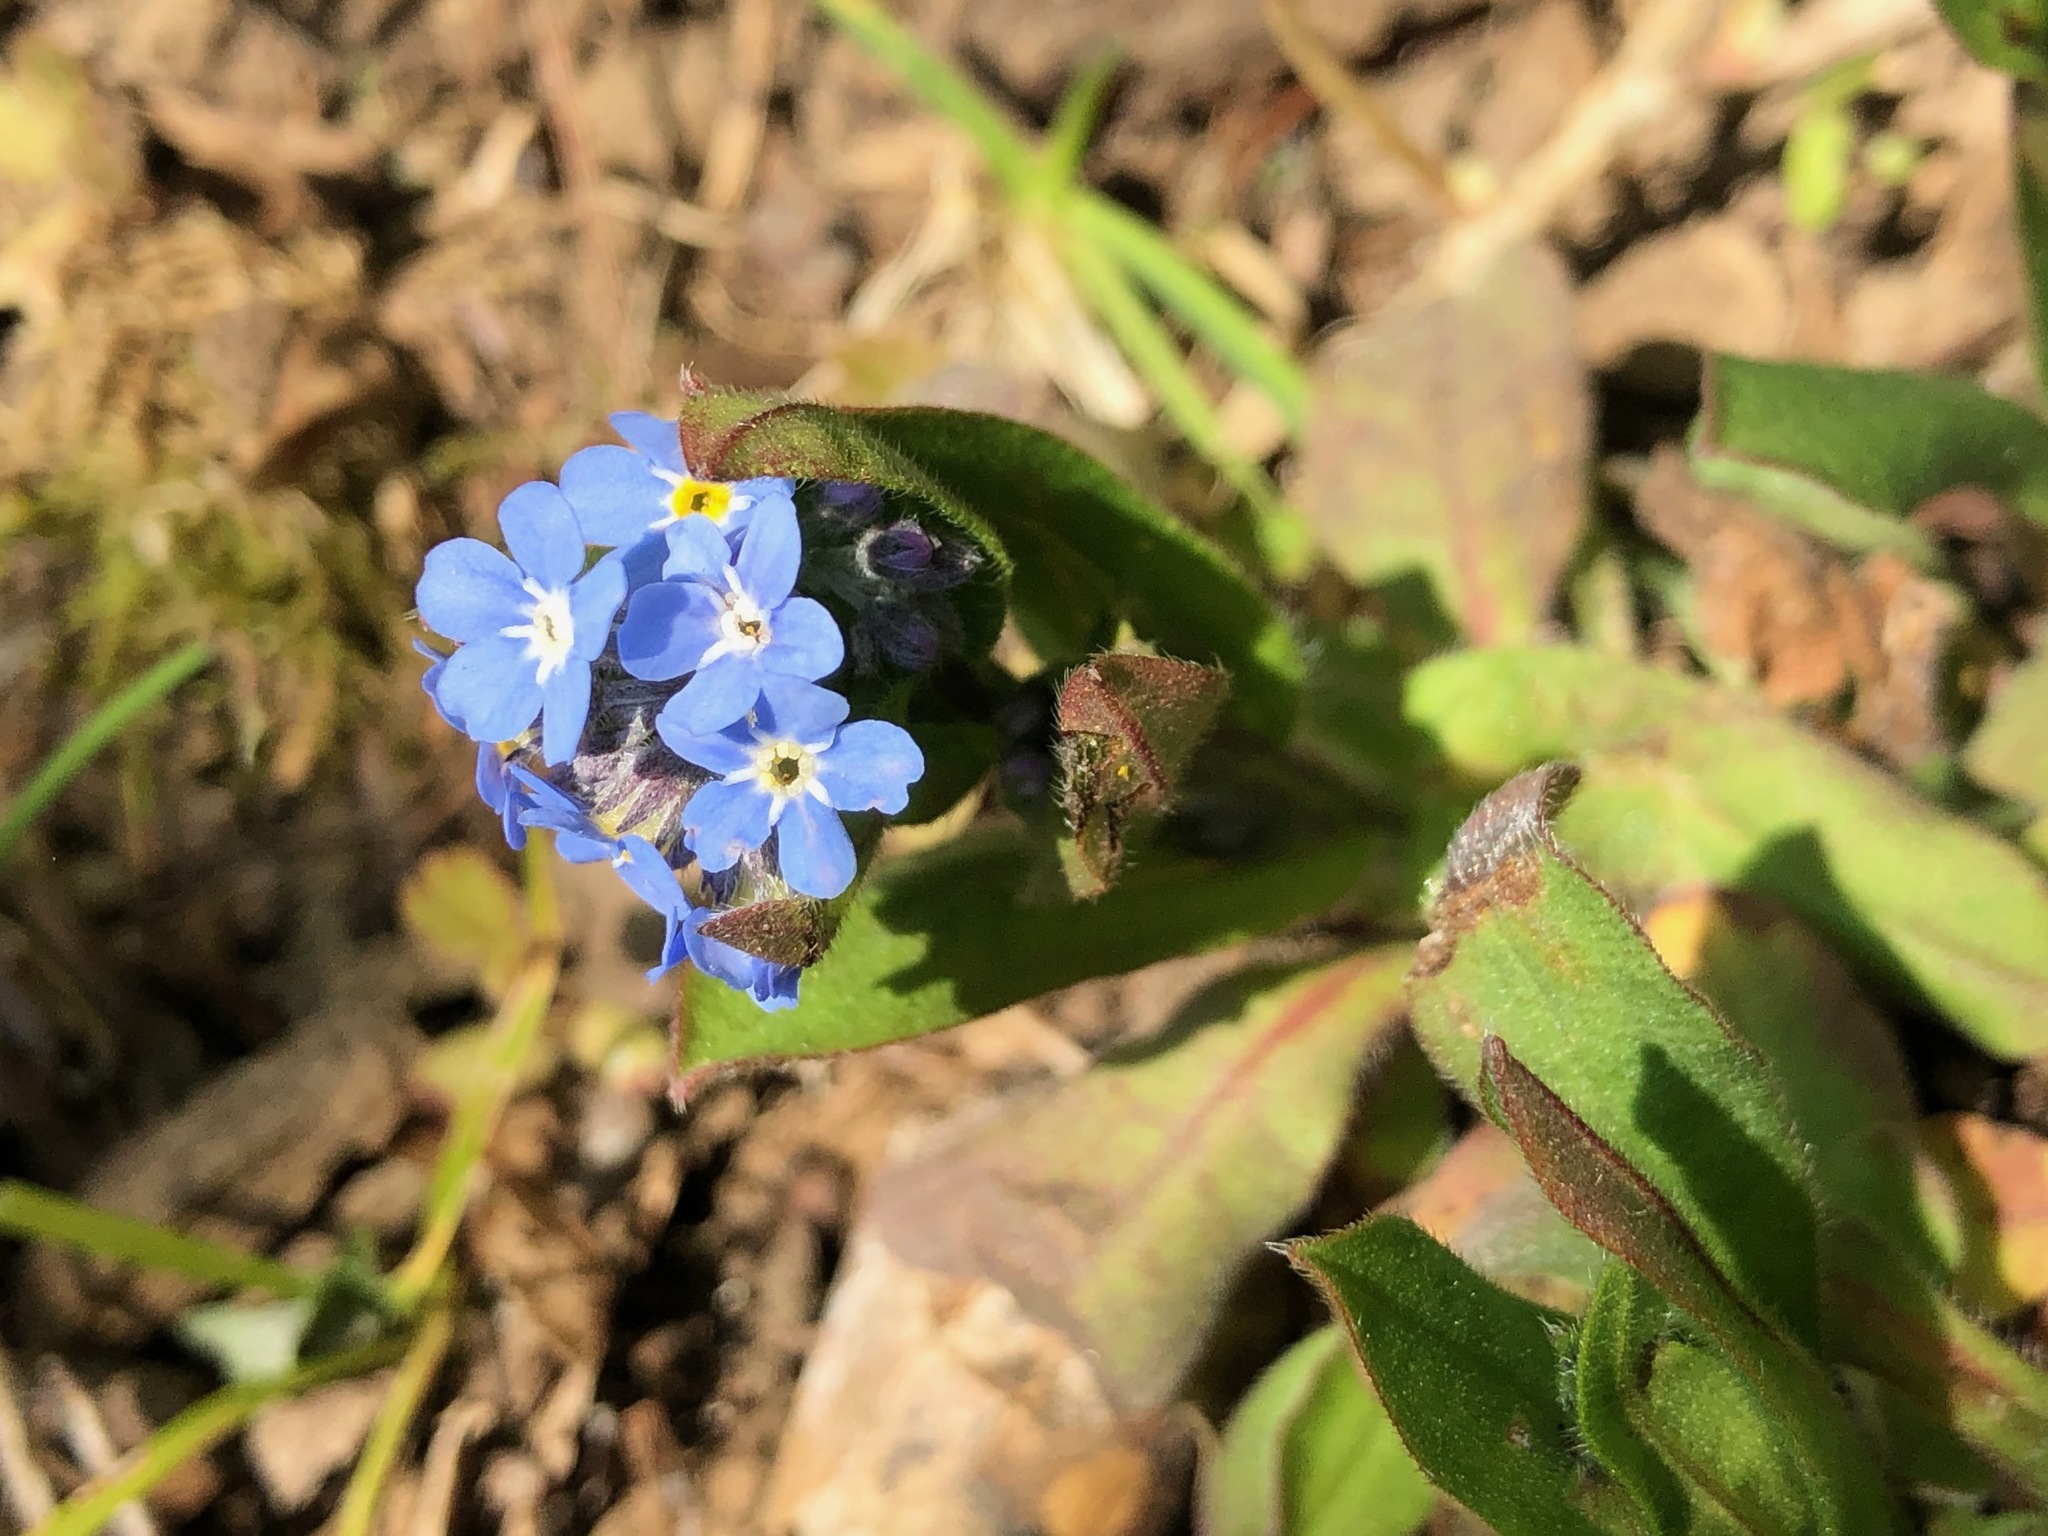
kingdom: Plantae
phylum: Tracheophyta
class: Magnoliopsida
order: Boraginales
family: Boraginaceae
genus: Myosotis
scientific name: Myosotis arvensis
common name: Field forget-me-not
